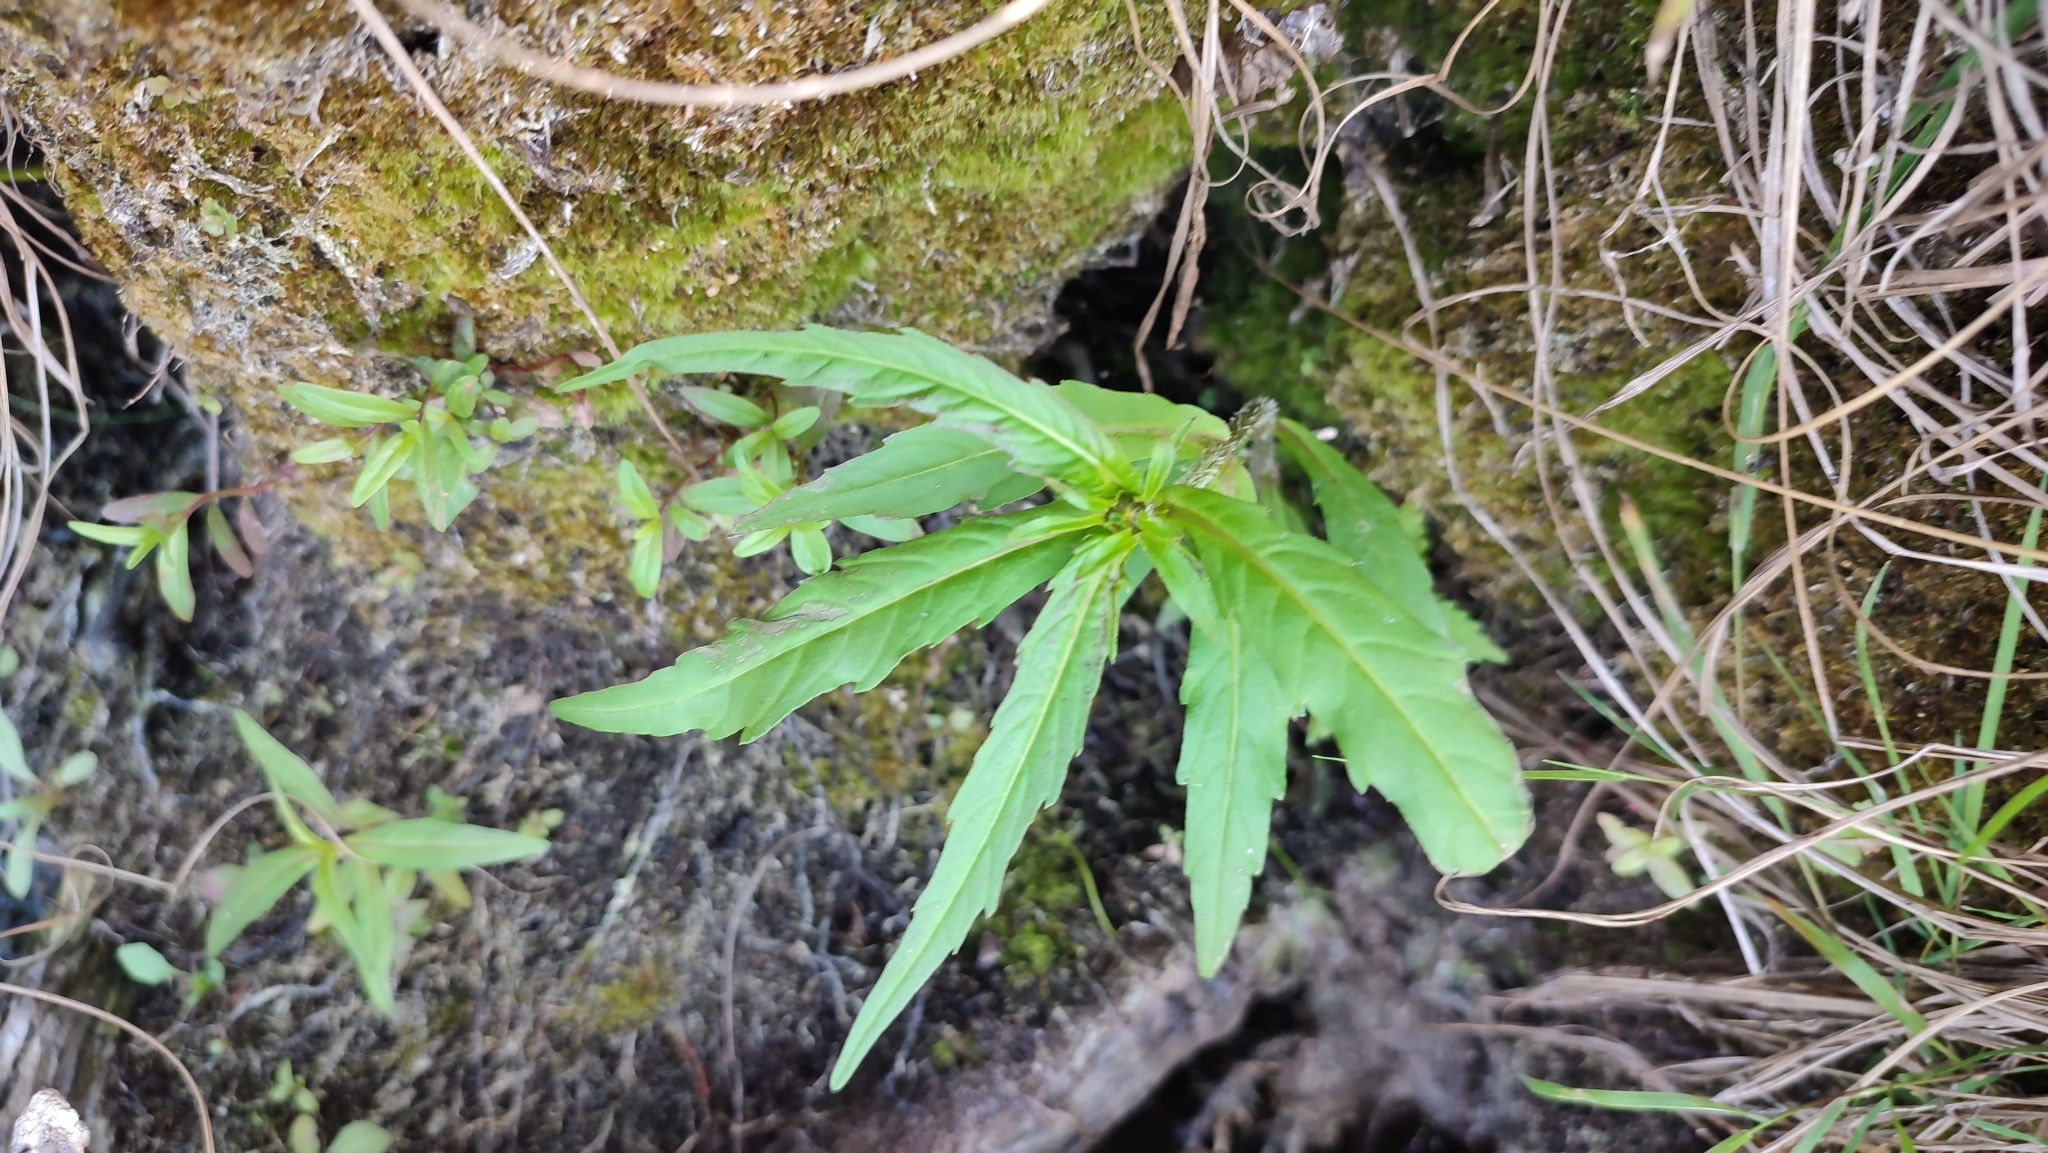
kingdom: Plantae
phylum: Tracheophyta
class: Magnoliopsida
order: Asterales
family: Asteraceae
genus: Bidens
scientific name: Bidens cernua
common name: Nodding bur-marigold
